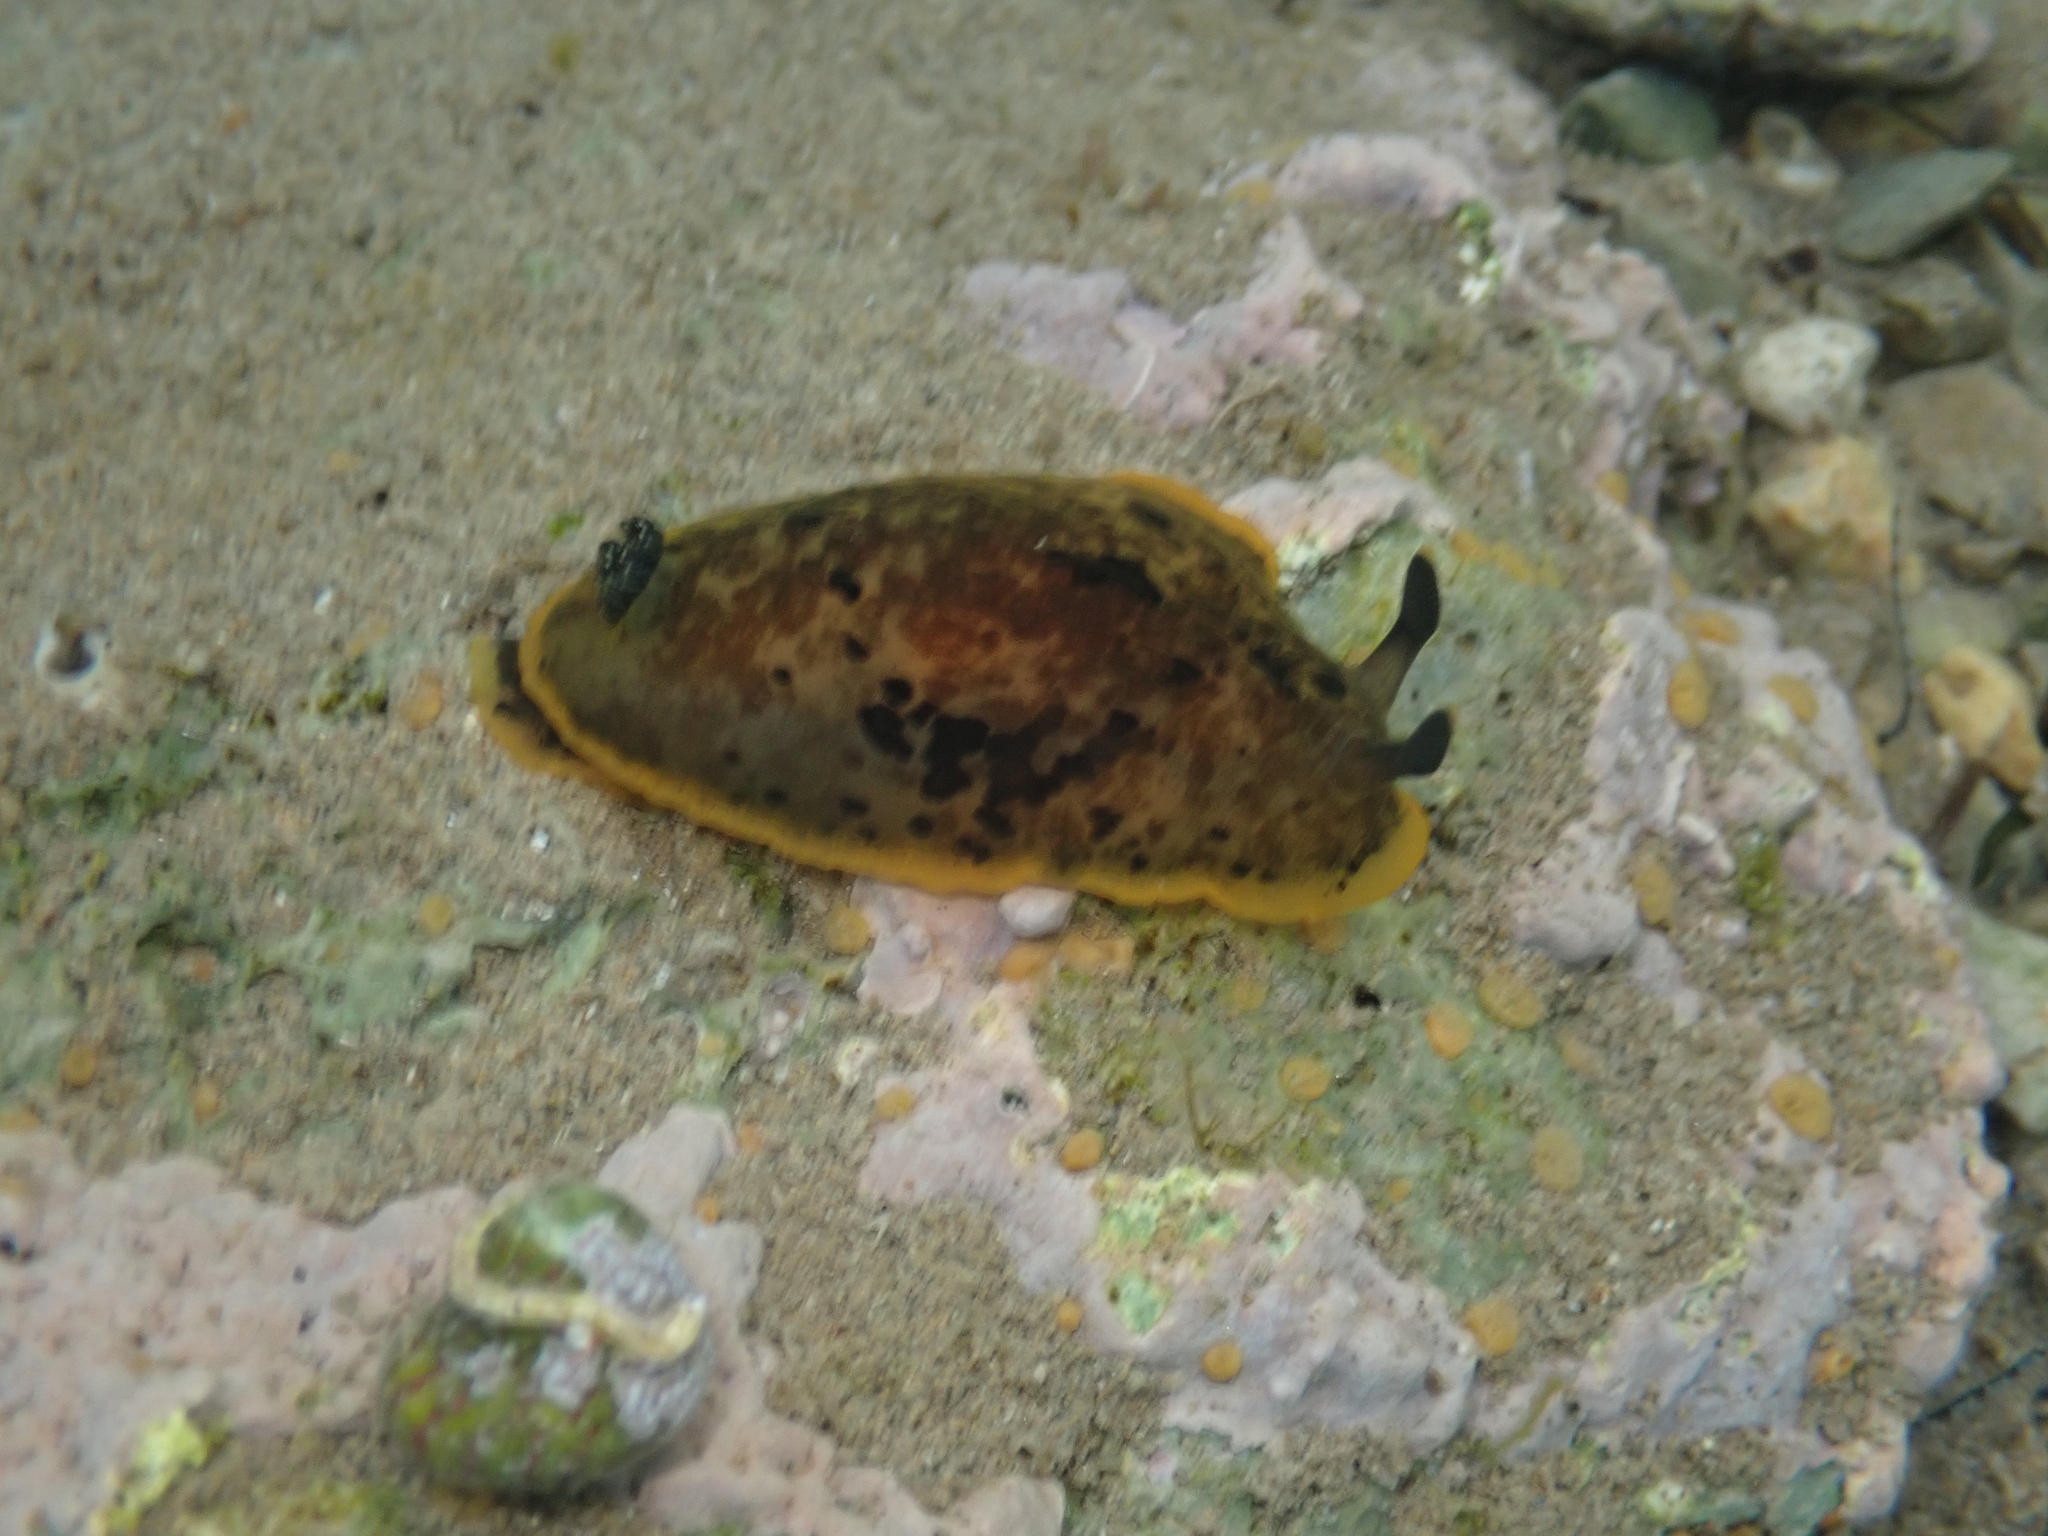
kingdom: Animalia
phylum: Mollusca
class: Gastropoda
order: Nudibranchia
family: Dendrodorididae
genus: Dendrodoris
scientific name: Dendrodoris limbata
